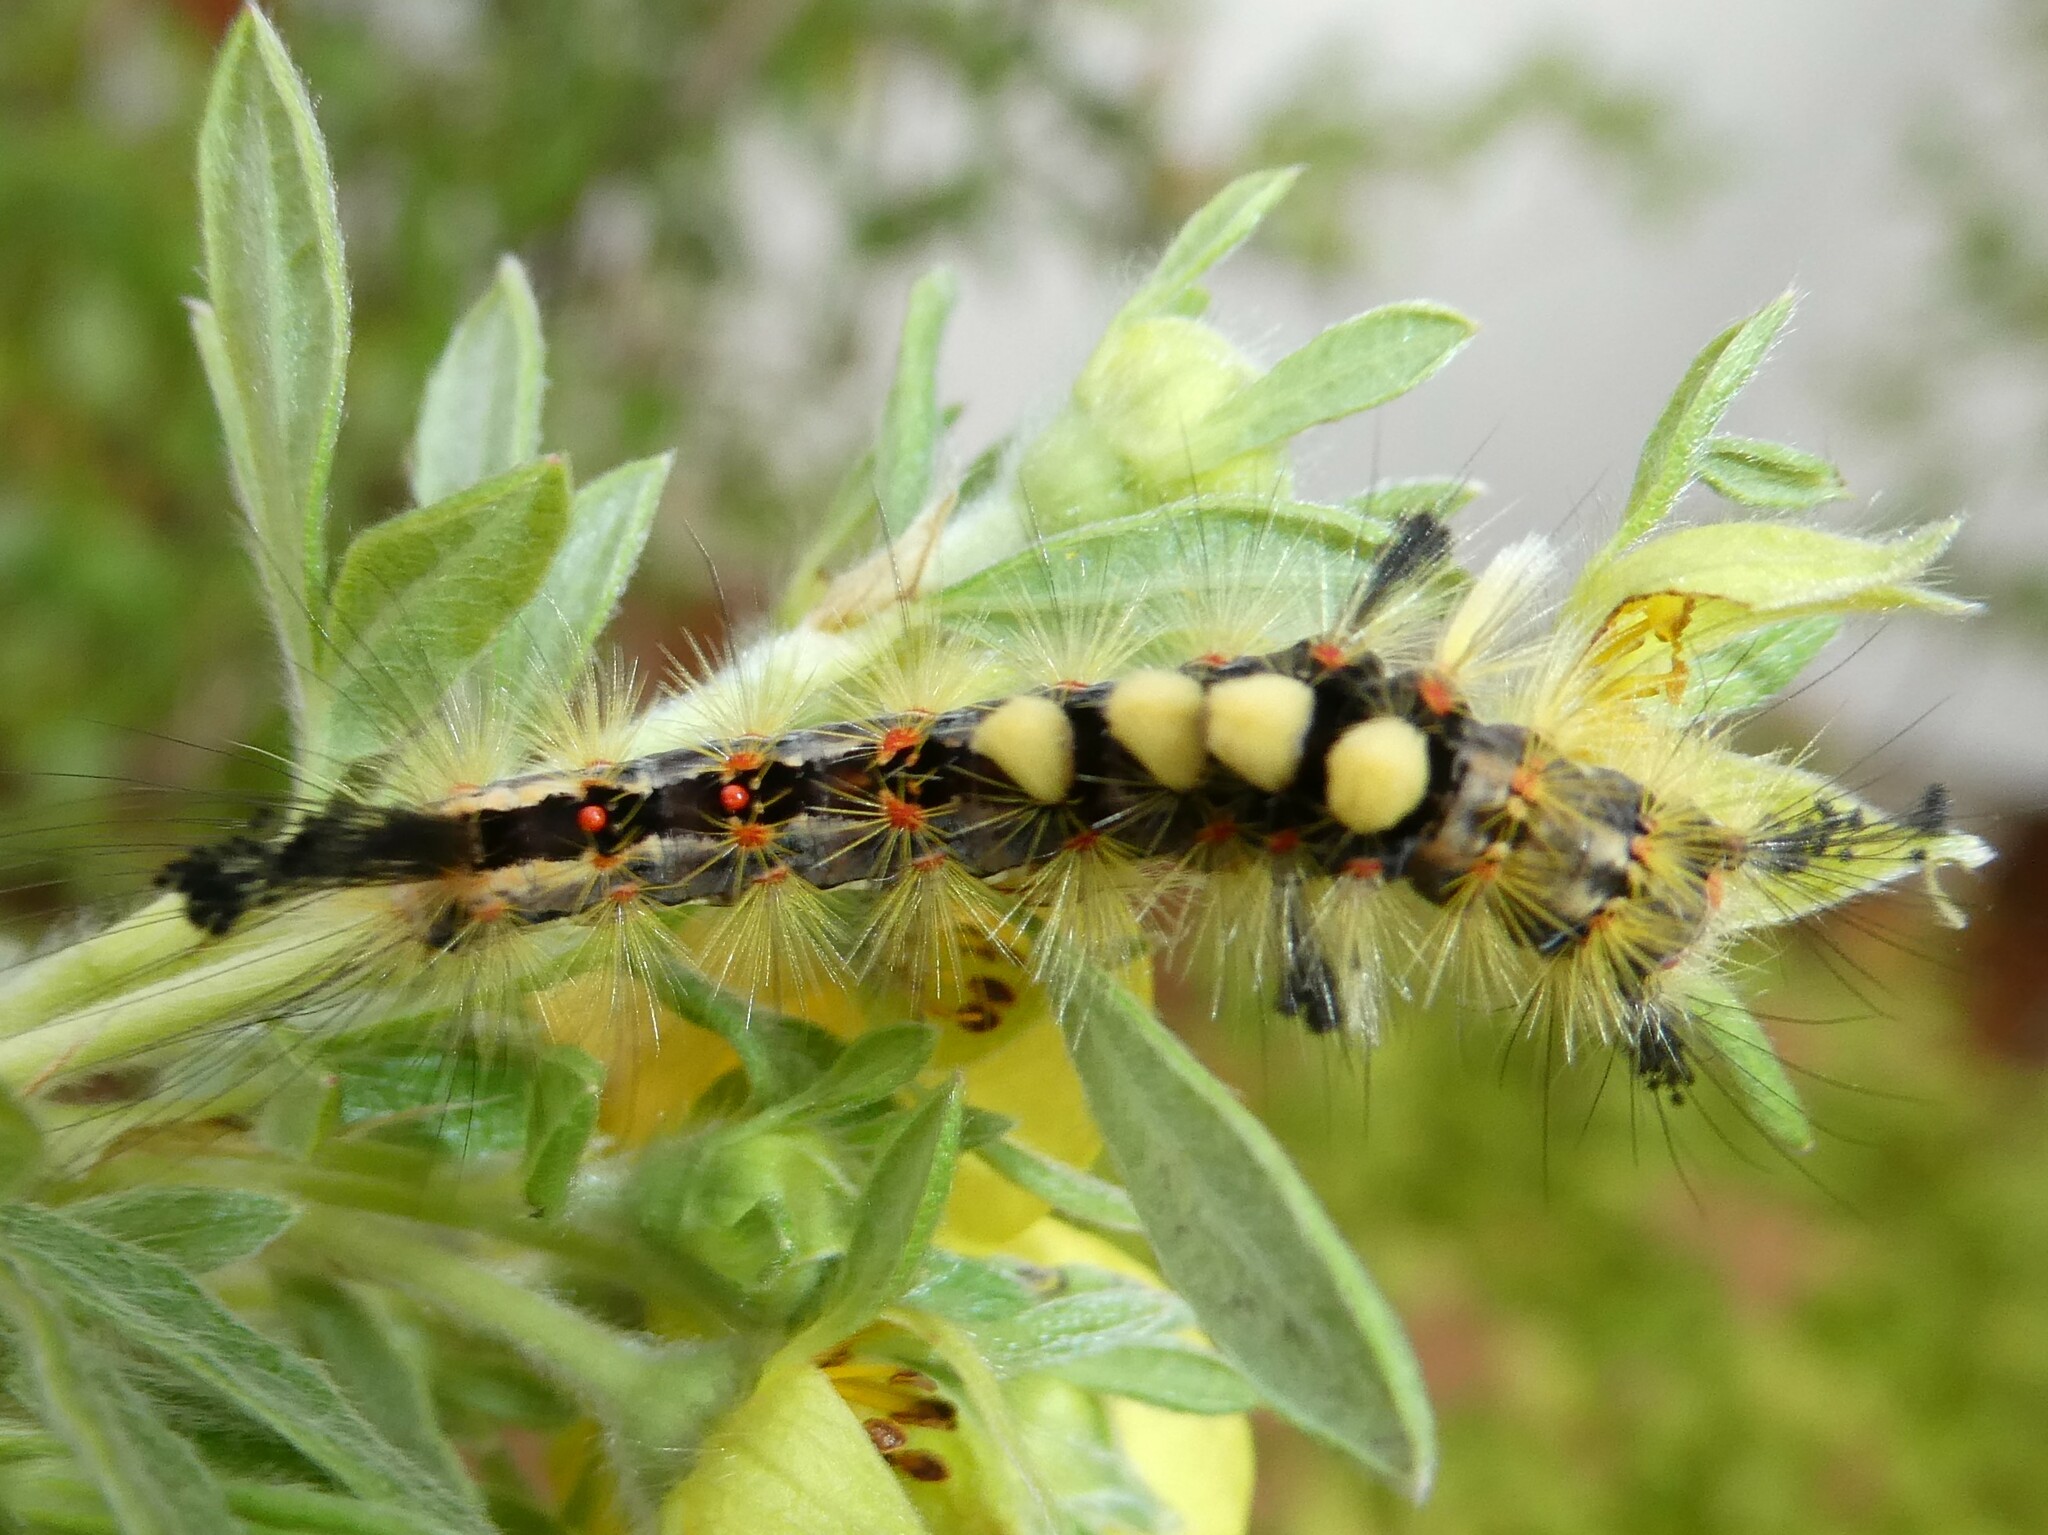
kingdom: Animalia
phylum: Arthropoda
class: Insecta
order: Lepidoptera
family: Erebidae
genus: Orgyia
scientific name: Orgyia antiqua
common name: Vapourer
